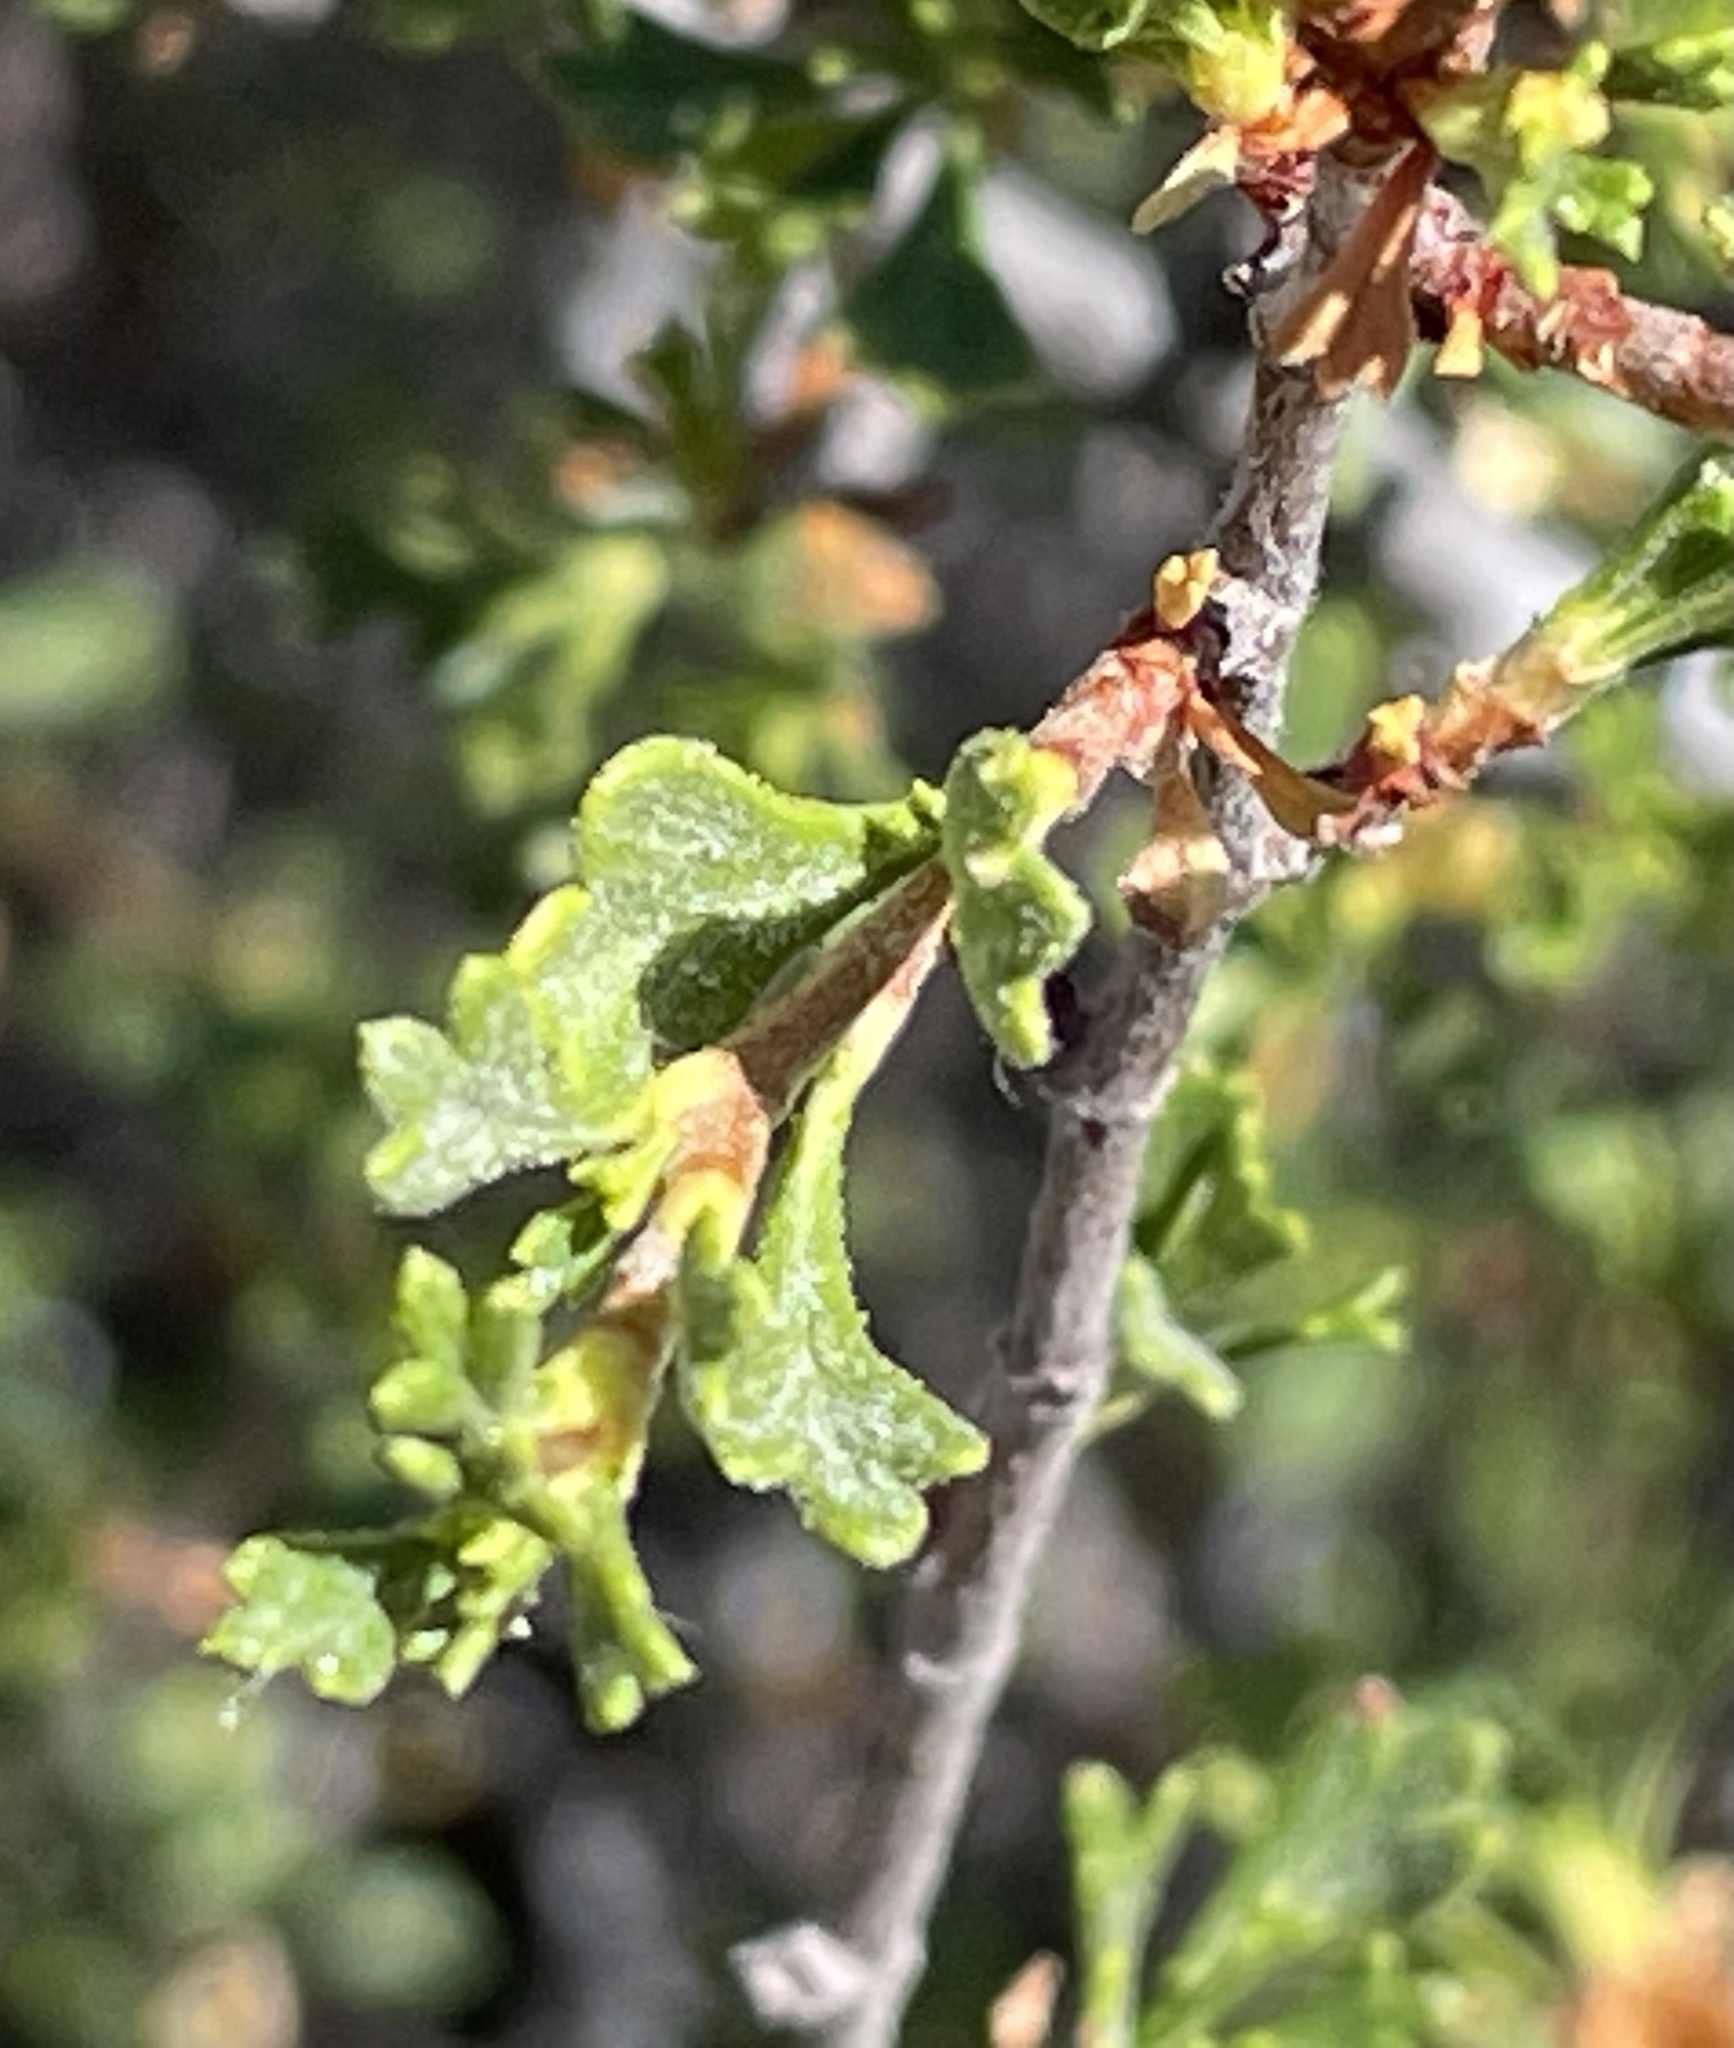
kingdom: Plantae
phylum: Tracheophyta
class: Magnoliopsida
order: Rosales
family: Rosaceae
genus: Purshia
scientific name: Purshia tridentata
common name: Antelope bitterbrush
